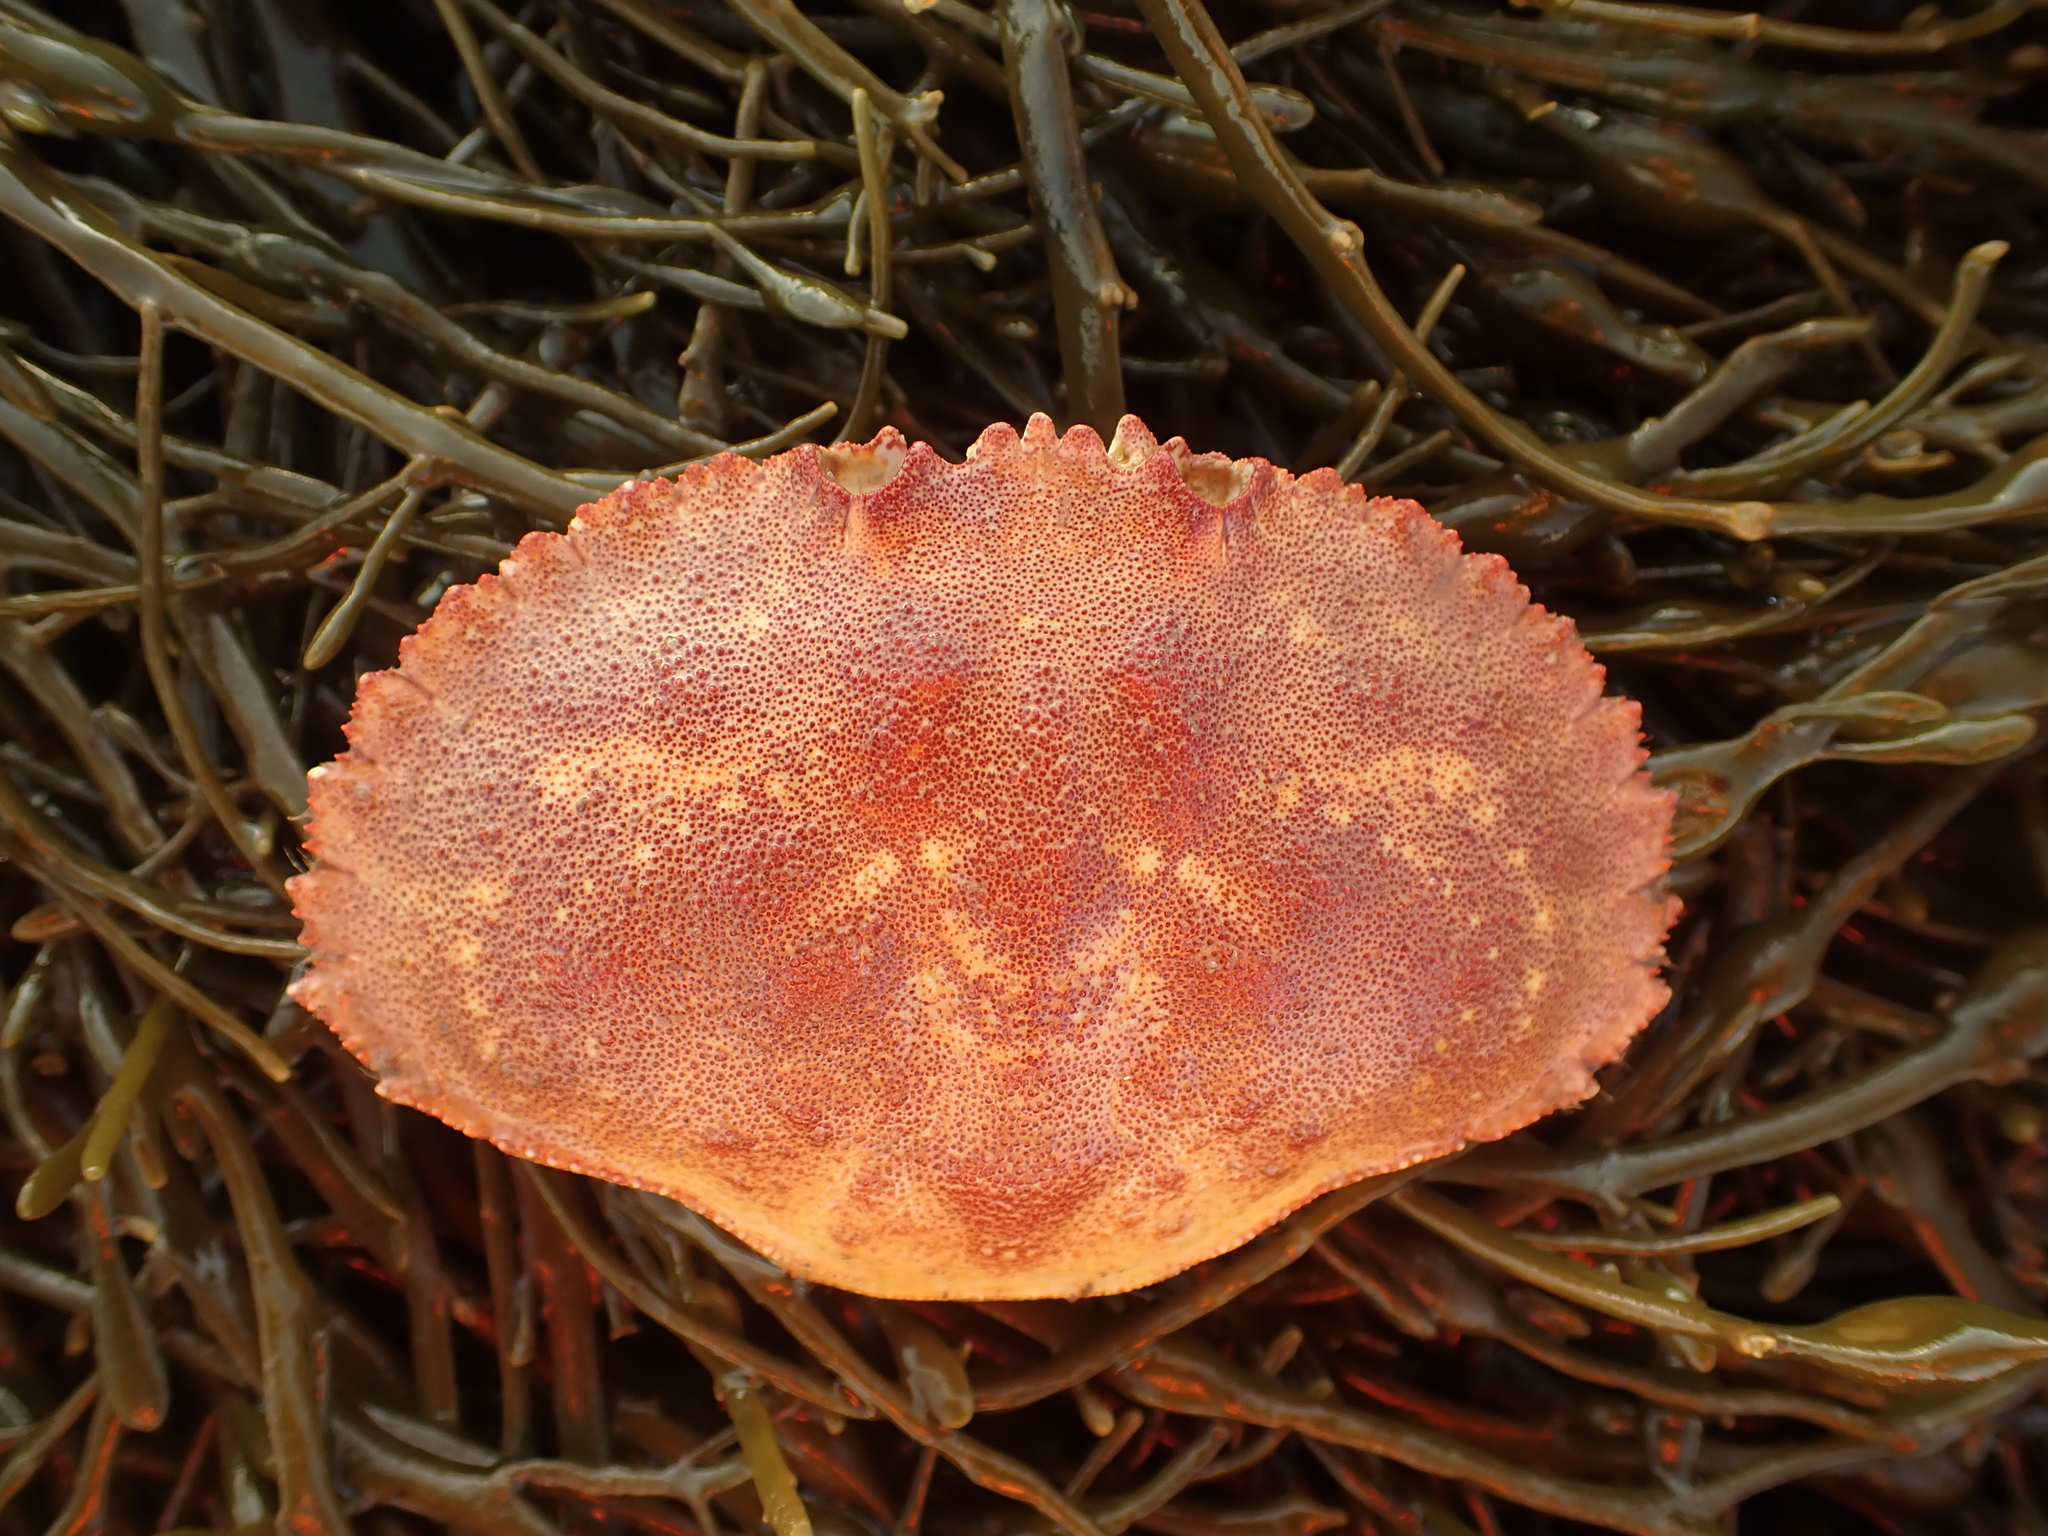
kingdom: Animalia
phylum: Arthropoda
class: Malacostraca
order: Decapoda
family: Cancridae
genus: Cancer
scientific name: Cancer borealis
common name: Jonah crab
